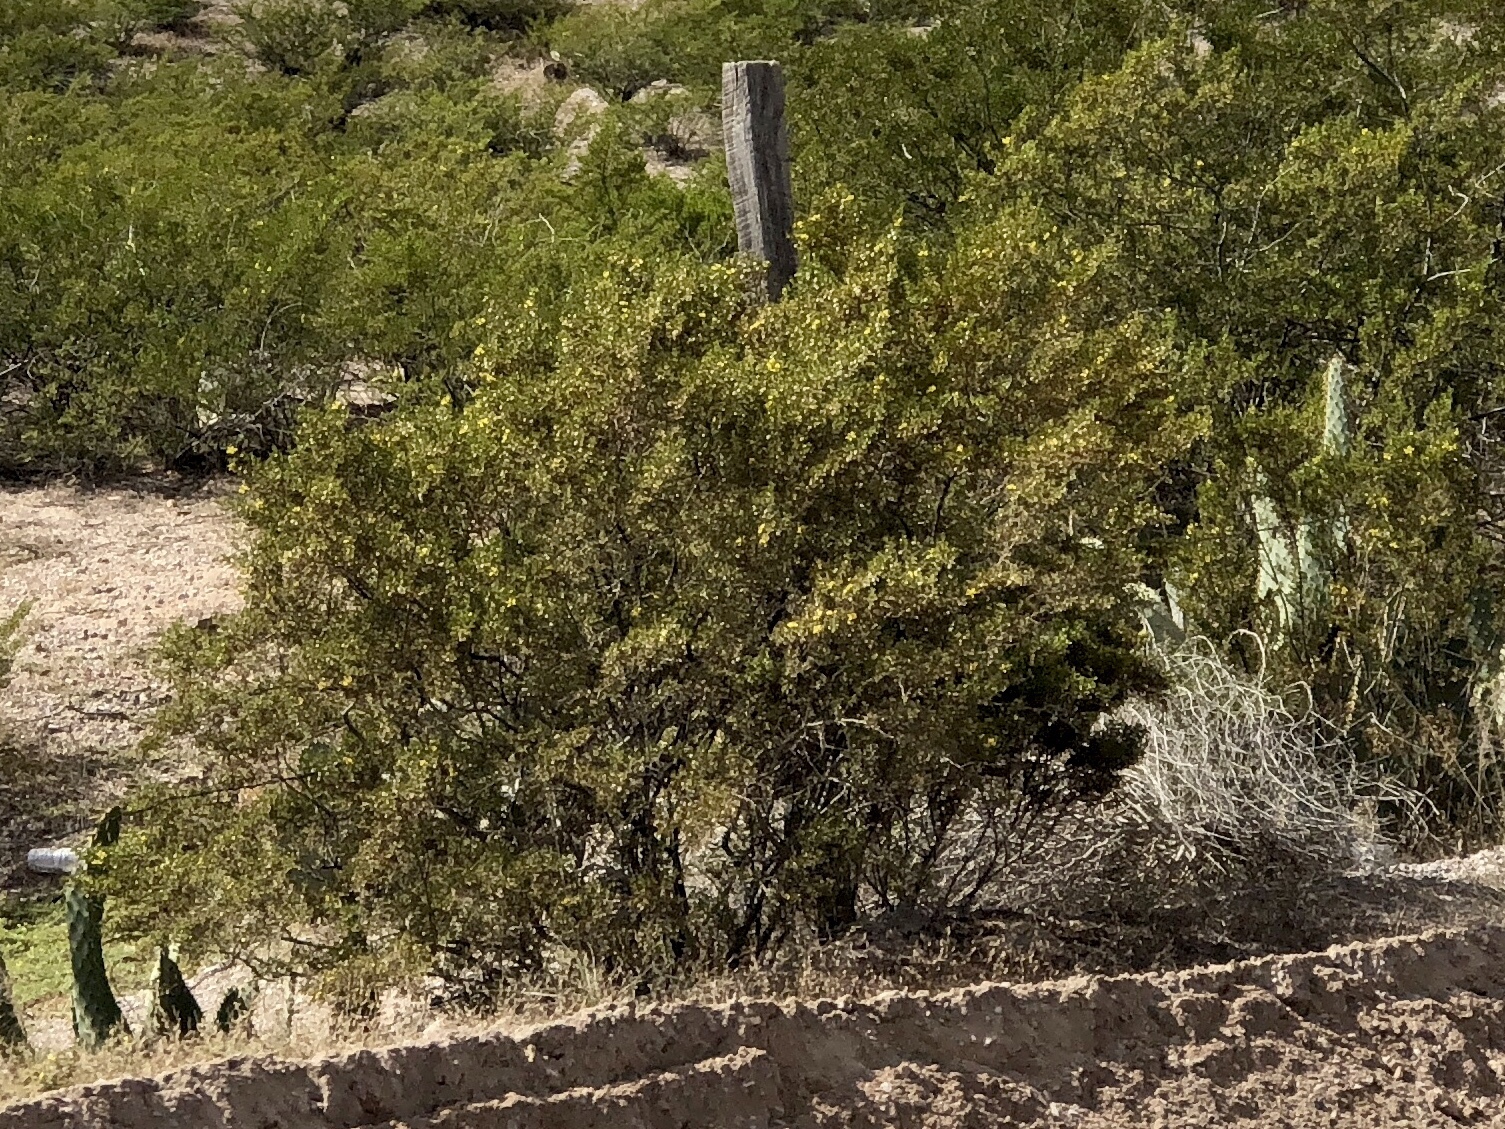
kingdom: Plantae
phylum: Tracheophyta
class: Magnoliopsida
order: Zygophyllales
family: Zygophyllaceae
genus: Larrea
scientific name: Larrea tridentata
